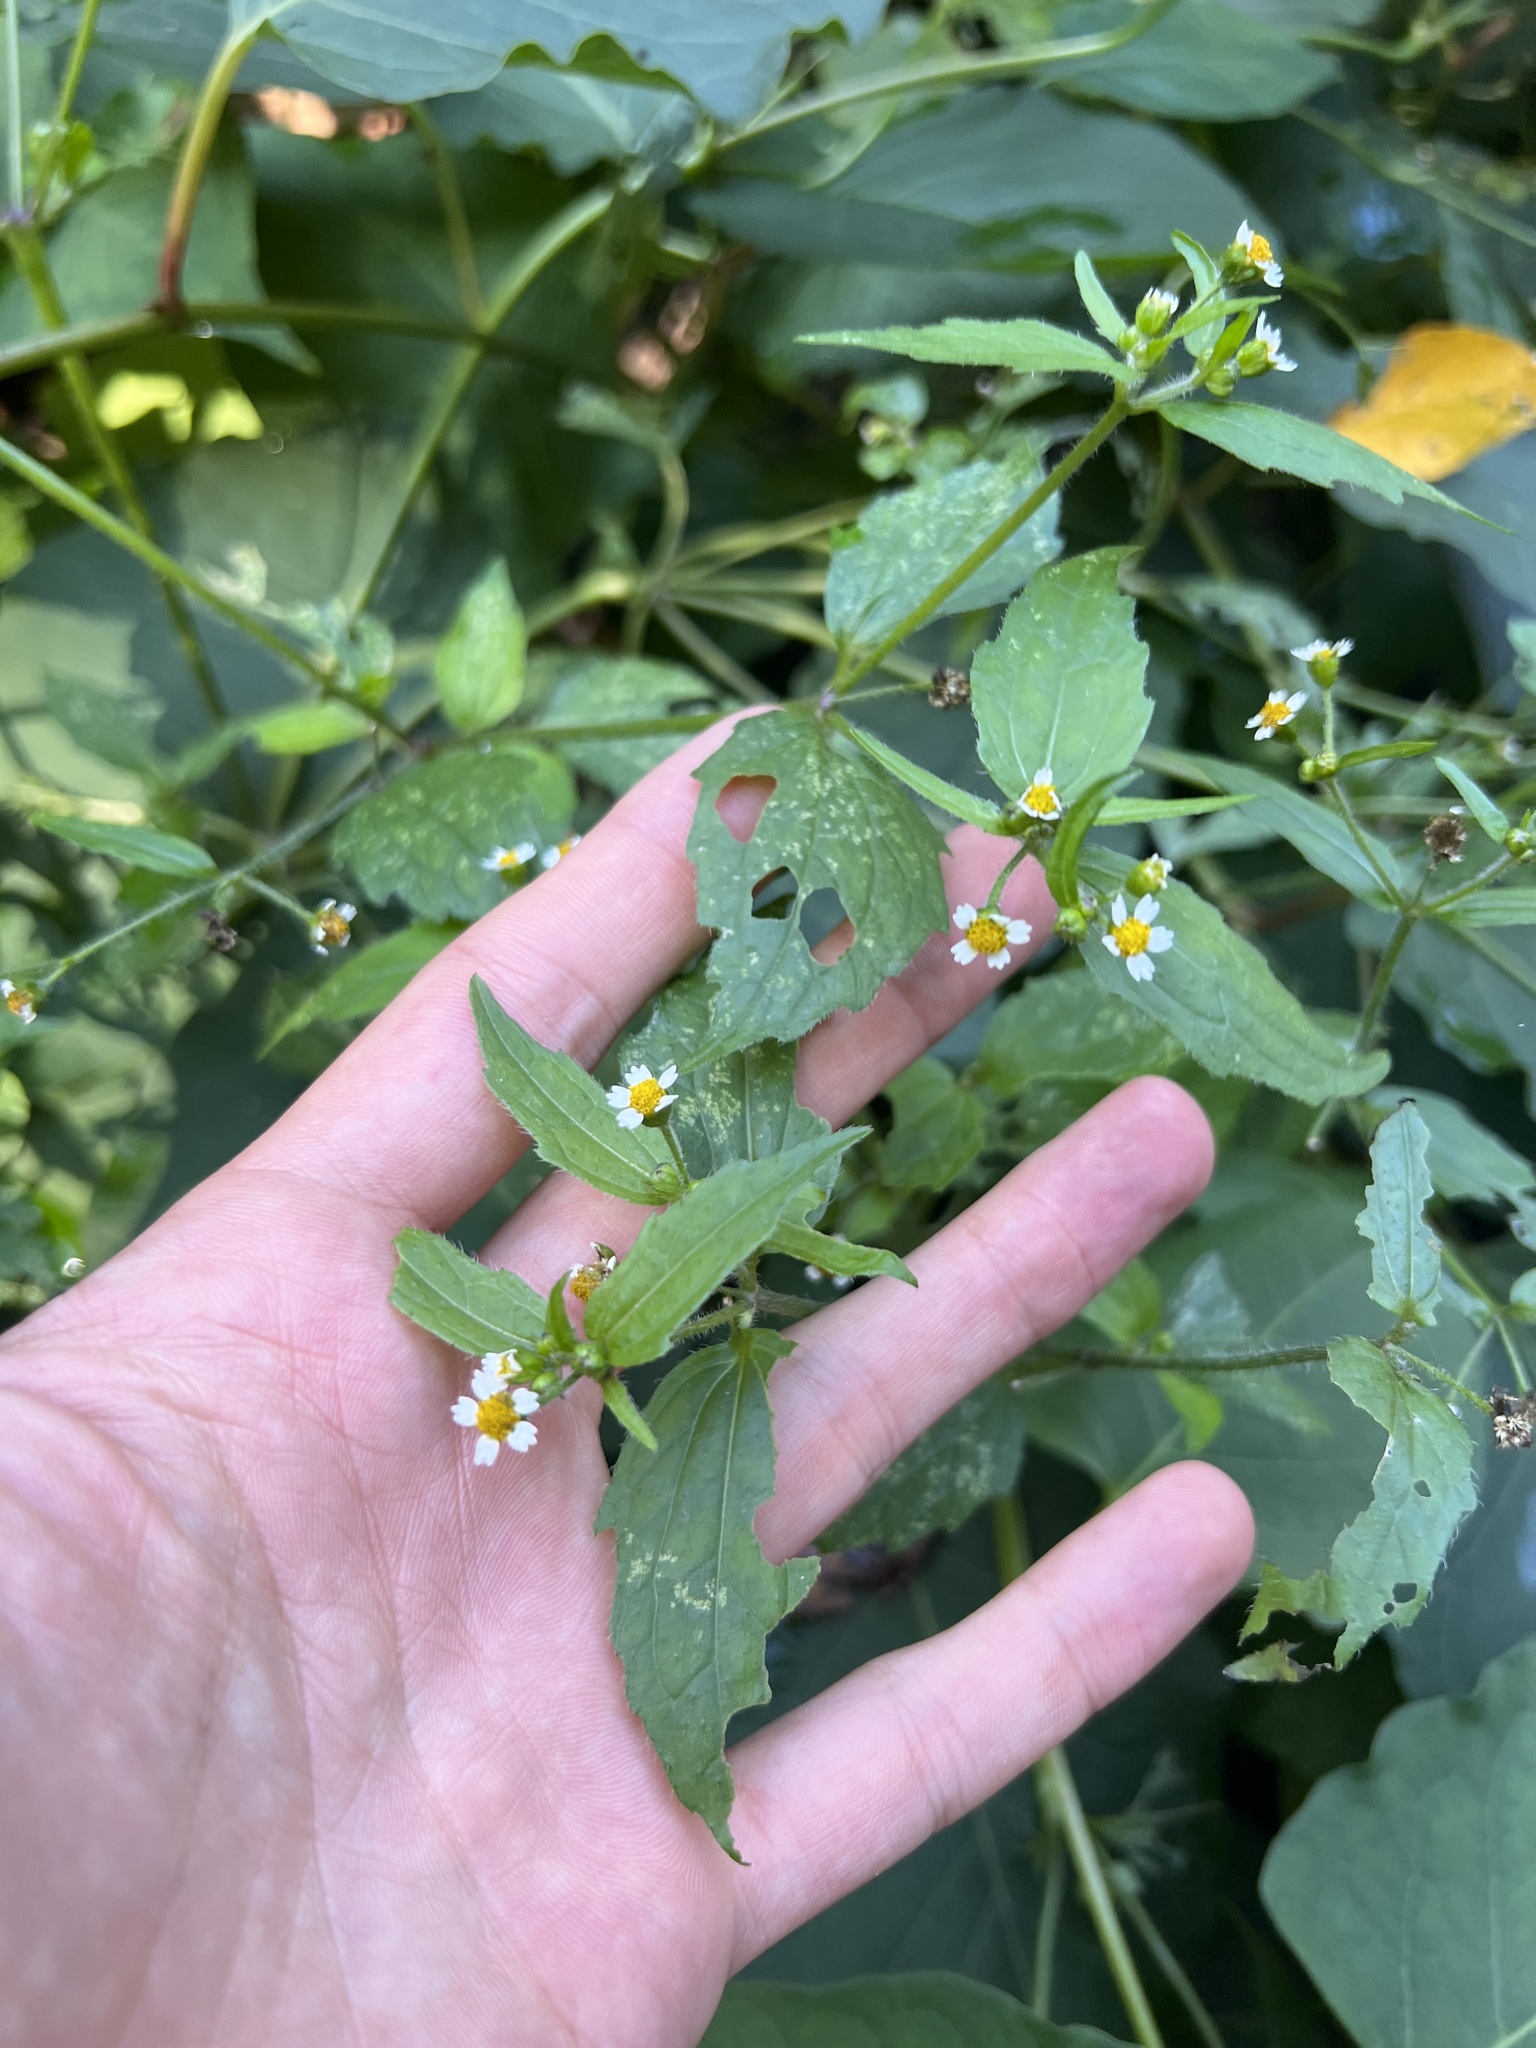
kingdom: Plantae
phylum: Tracheophyta
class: Magnoliopsida
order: Asterales
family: Asteraceae
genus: Galinsoga
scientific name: Galinsoga quadriradiata
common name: Shaggy soldier
